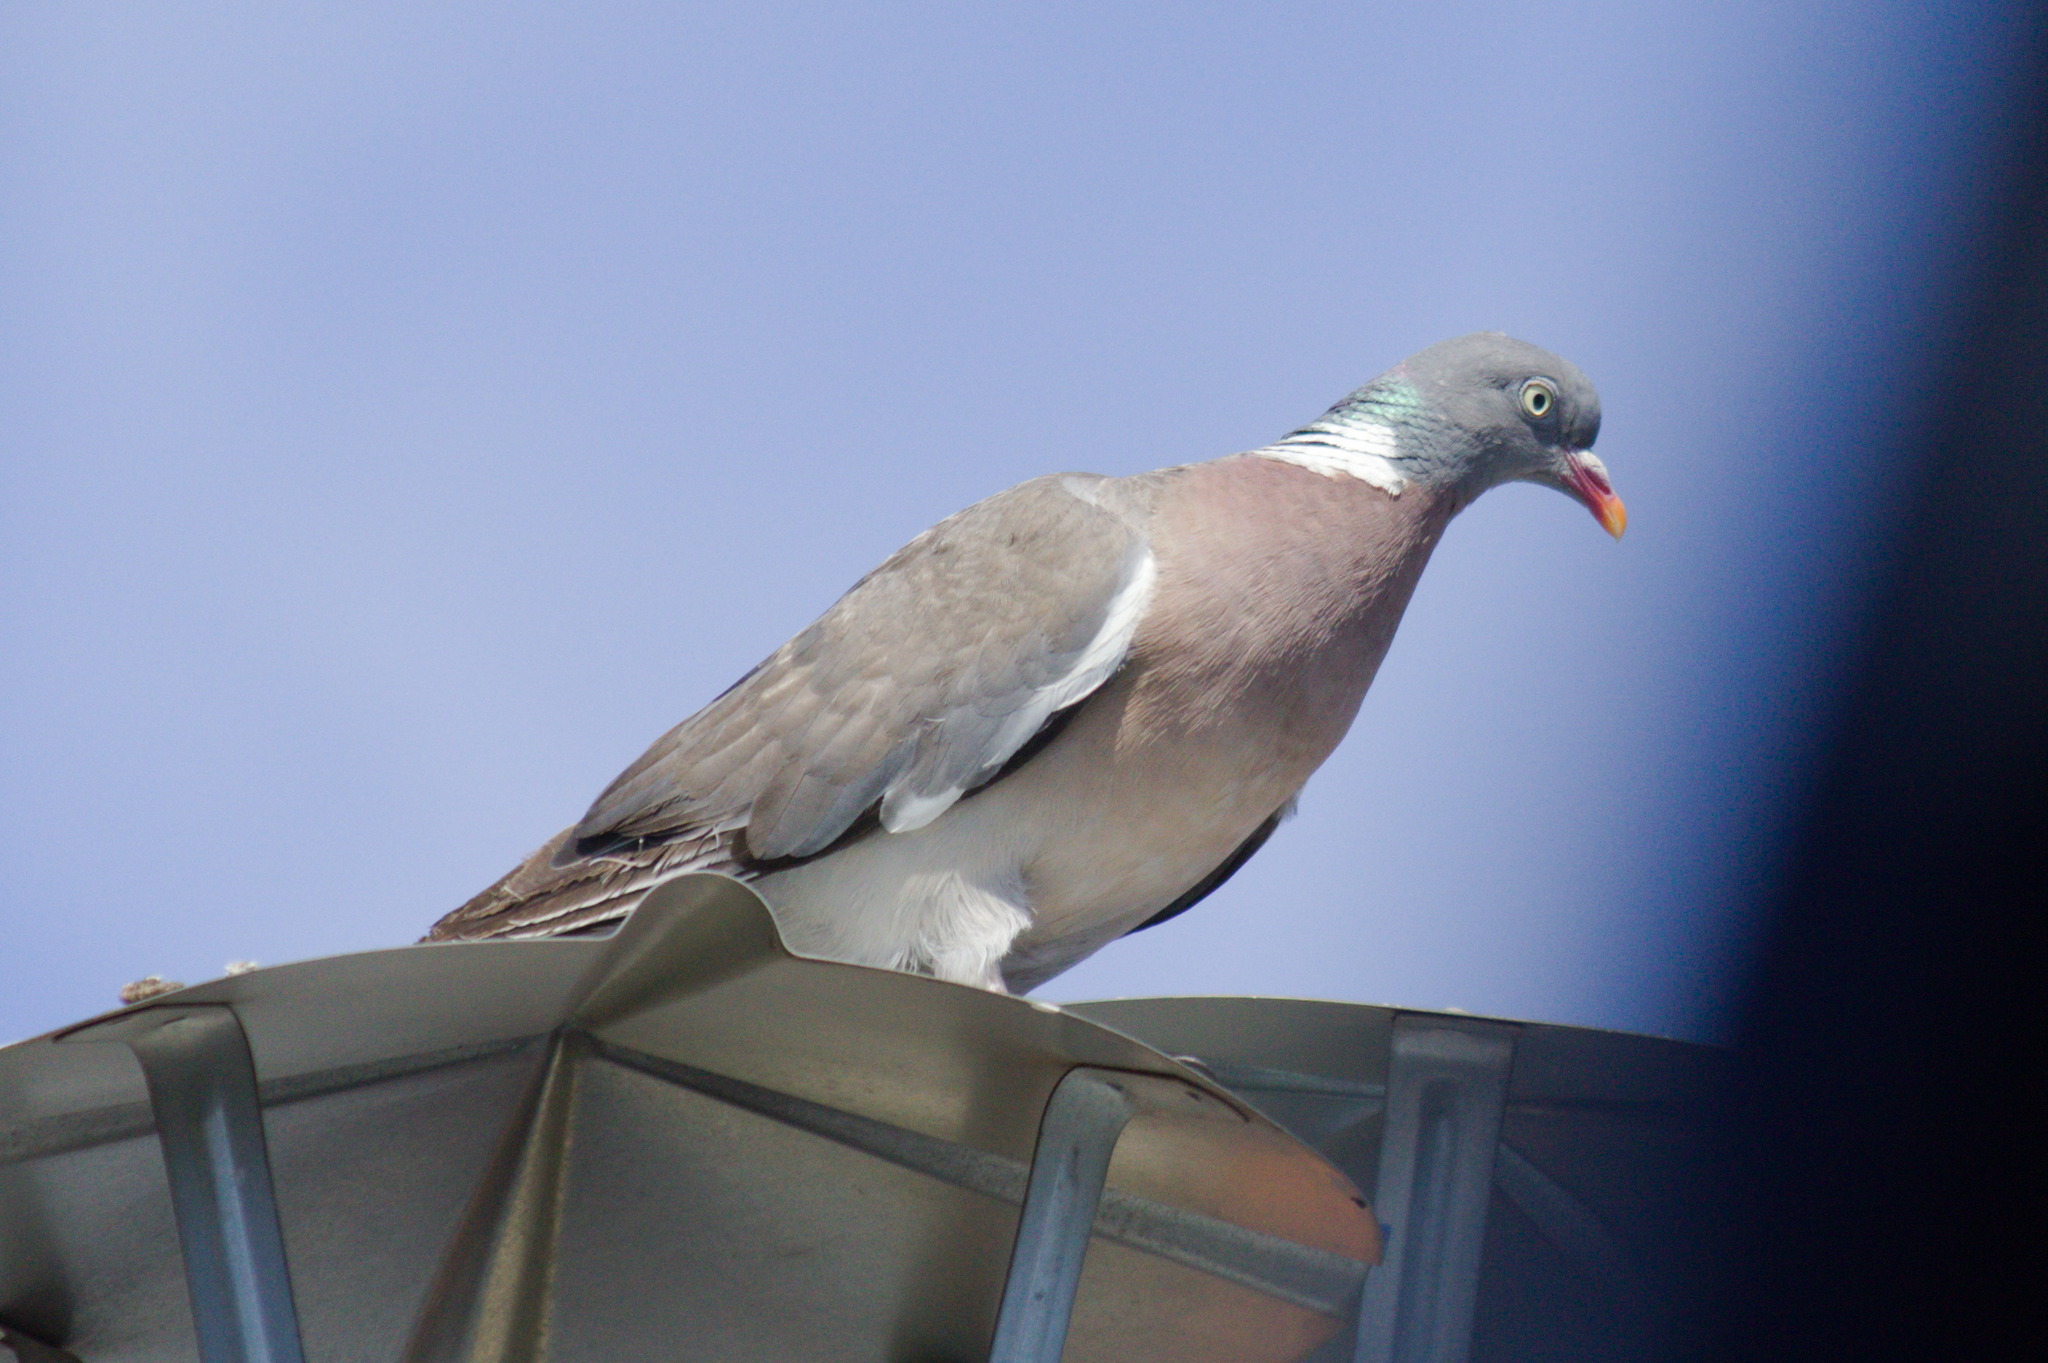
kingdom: Animalia
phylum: Chordata
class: Aves
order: Columbiformes
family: Columbidae
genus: Columba
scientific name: Columba palumbus
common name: Common wood pigeon
